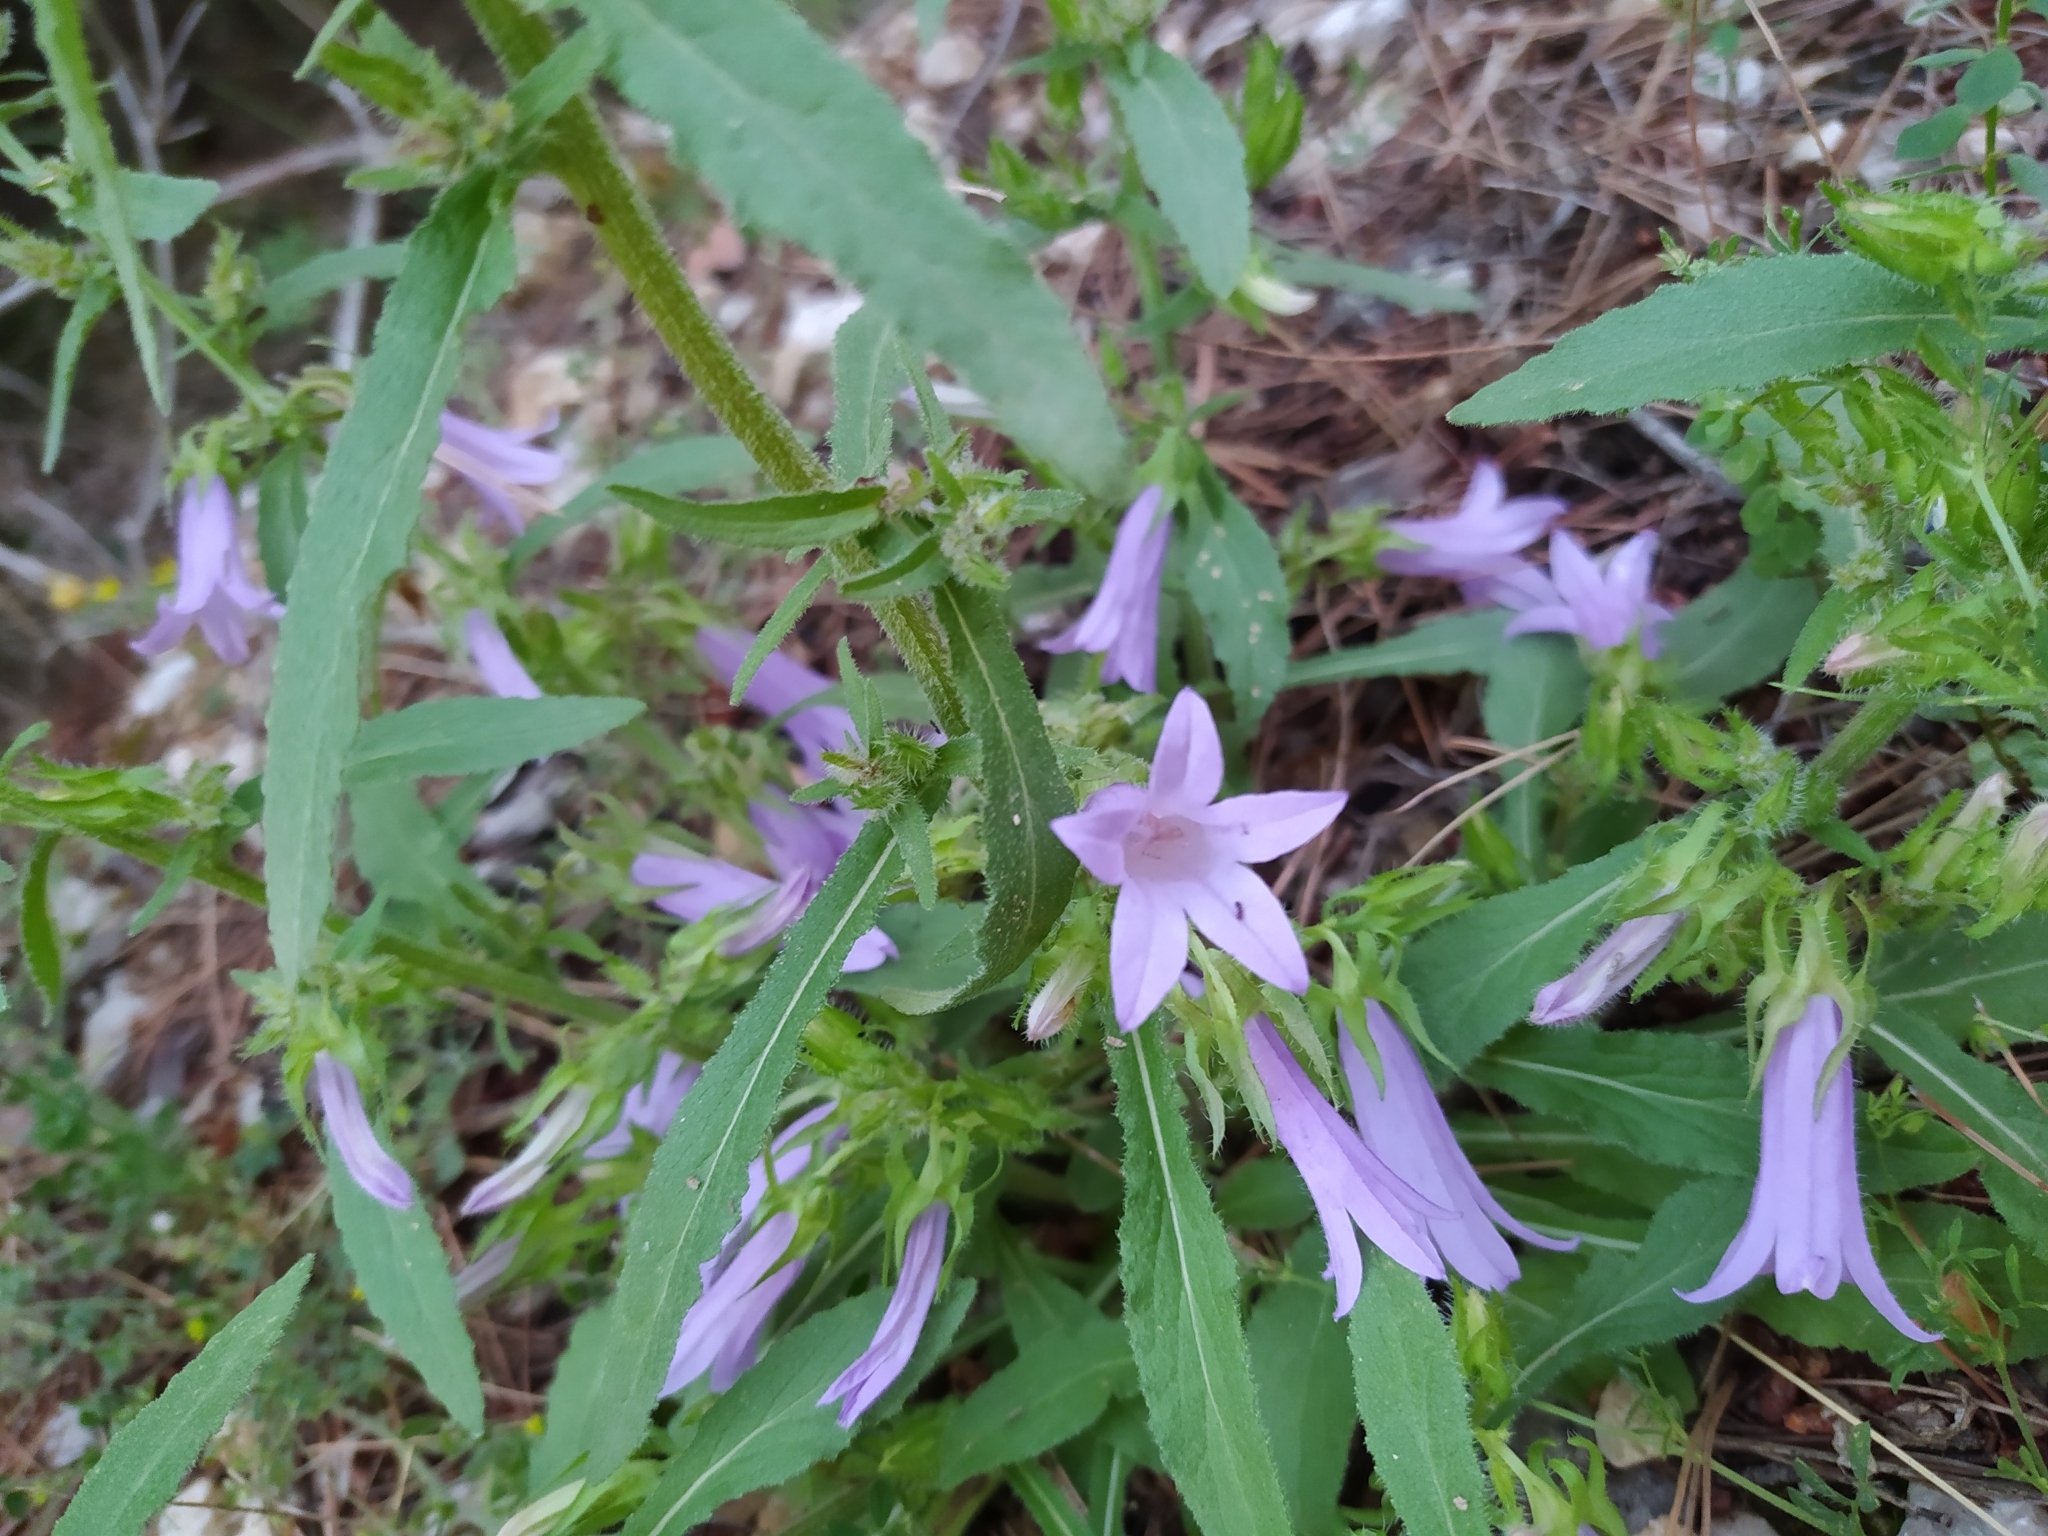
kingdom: Plantae
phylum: Tracheophyta
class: Magnoliopsida
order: Asterales
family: Campanulaceae
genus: Campanula
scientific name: Campanula sibirica
